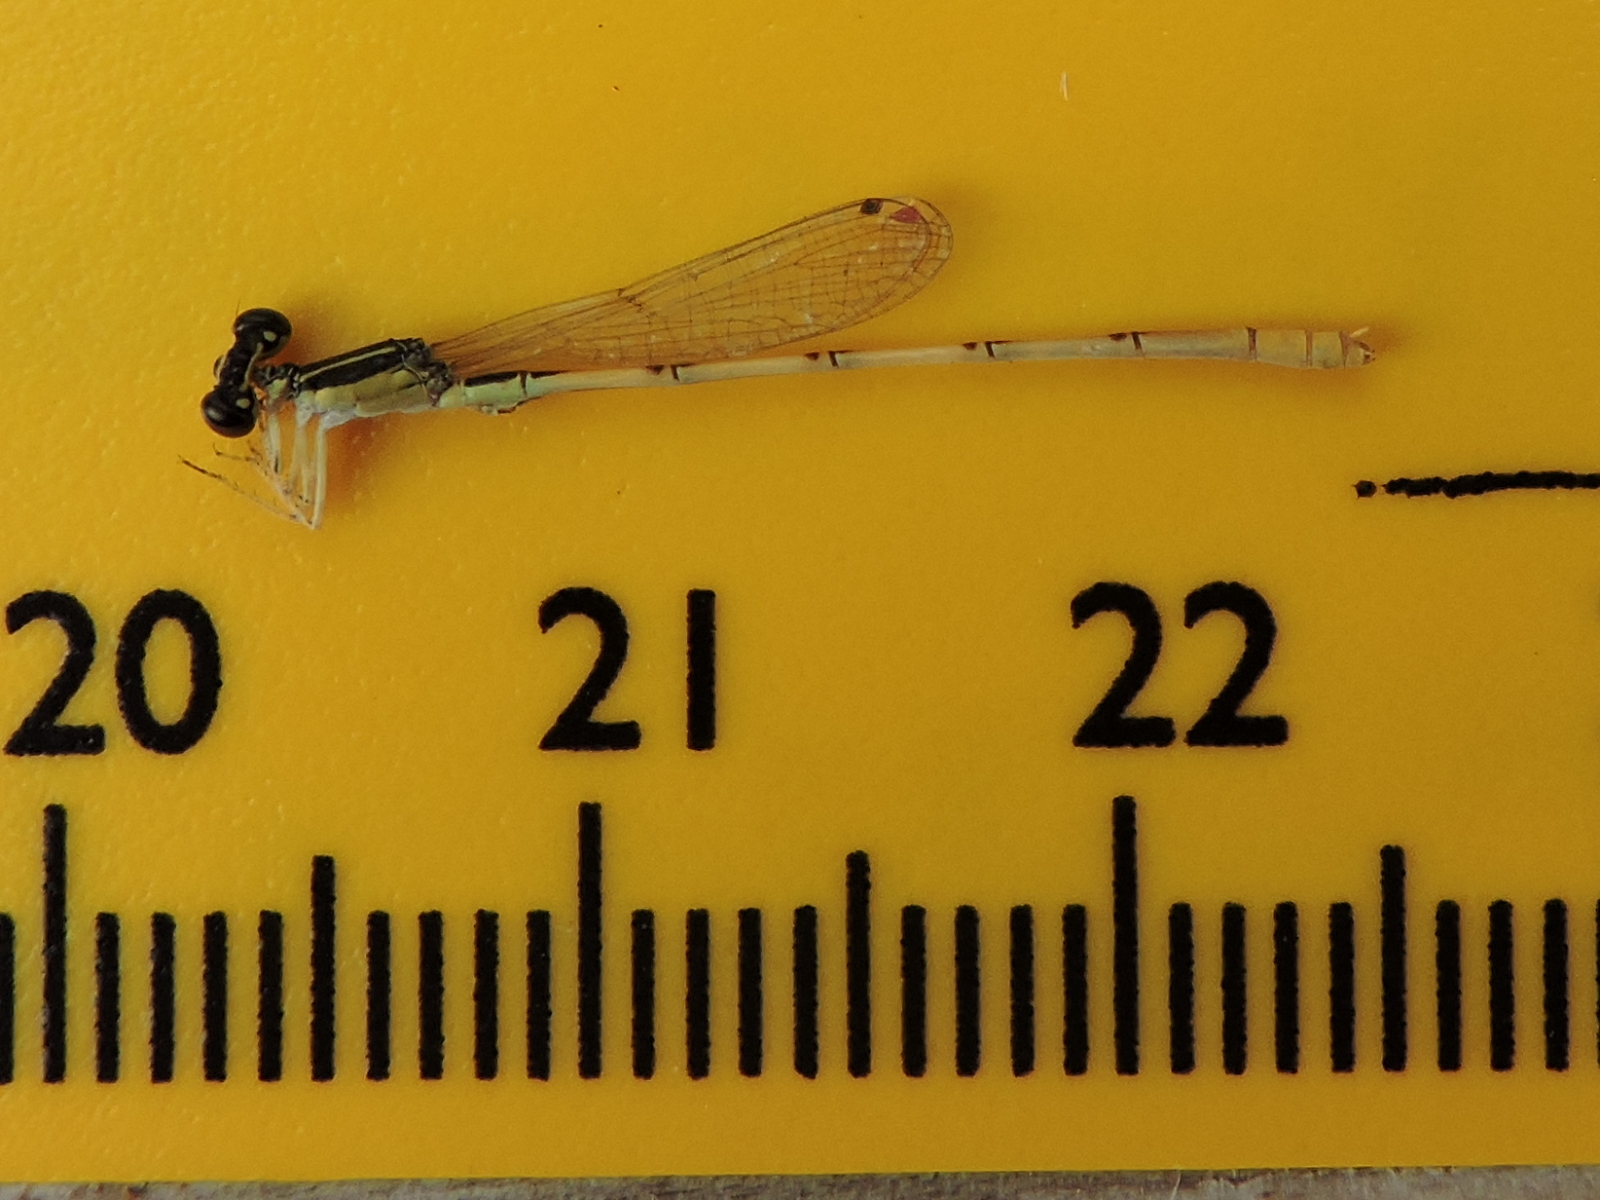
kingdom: Animalia
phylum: Arthropoda
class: Insecta
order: Odonata
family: Coenagrionidae
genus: Ischnura
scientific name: Ischnura hastata
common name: Citrine forktail
